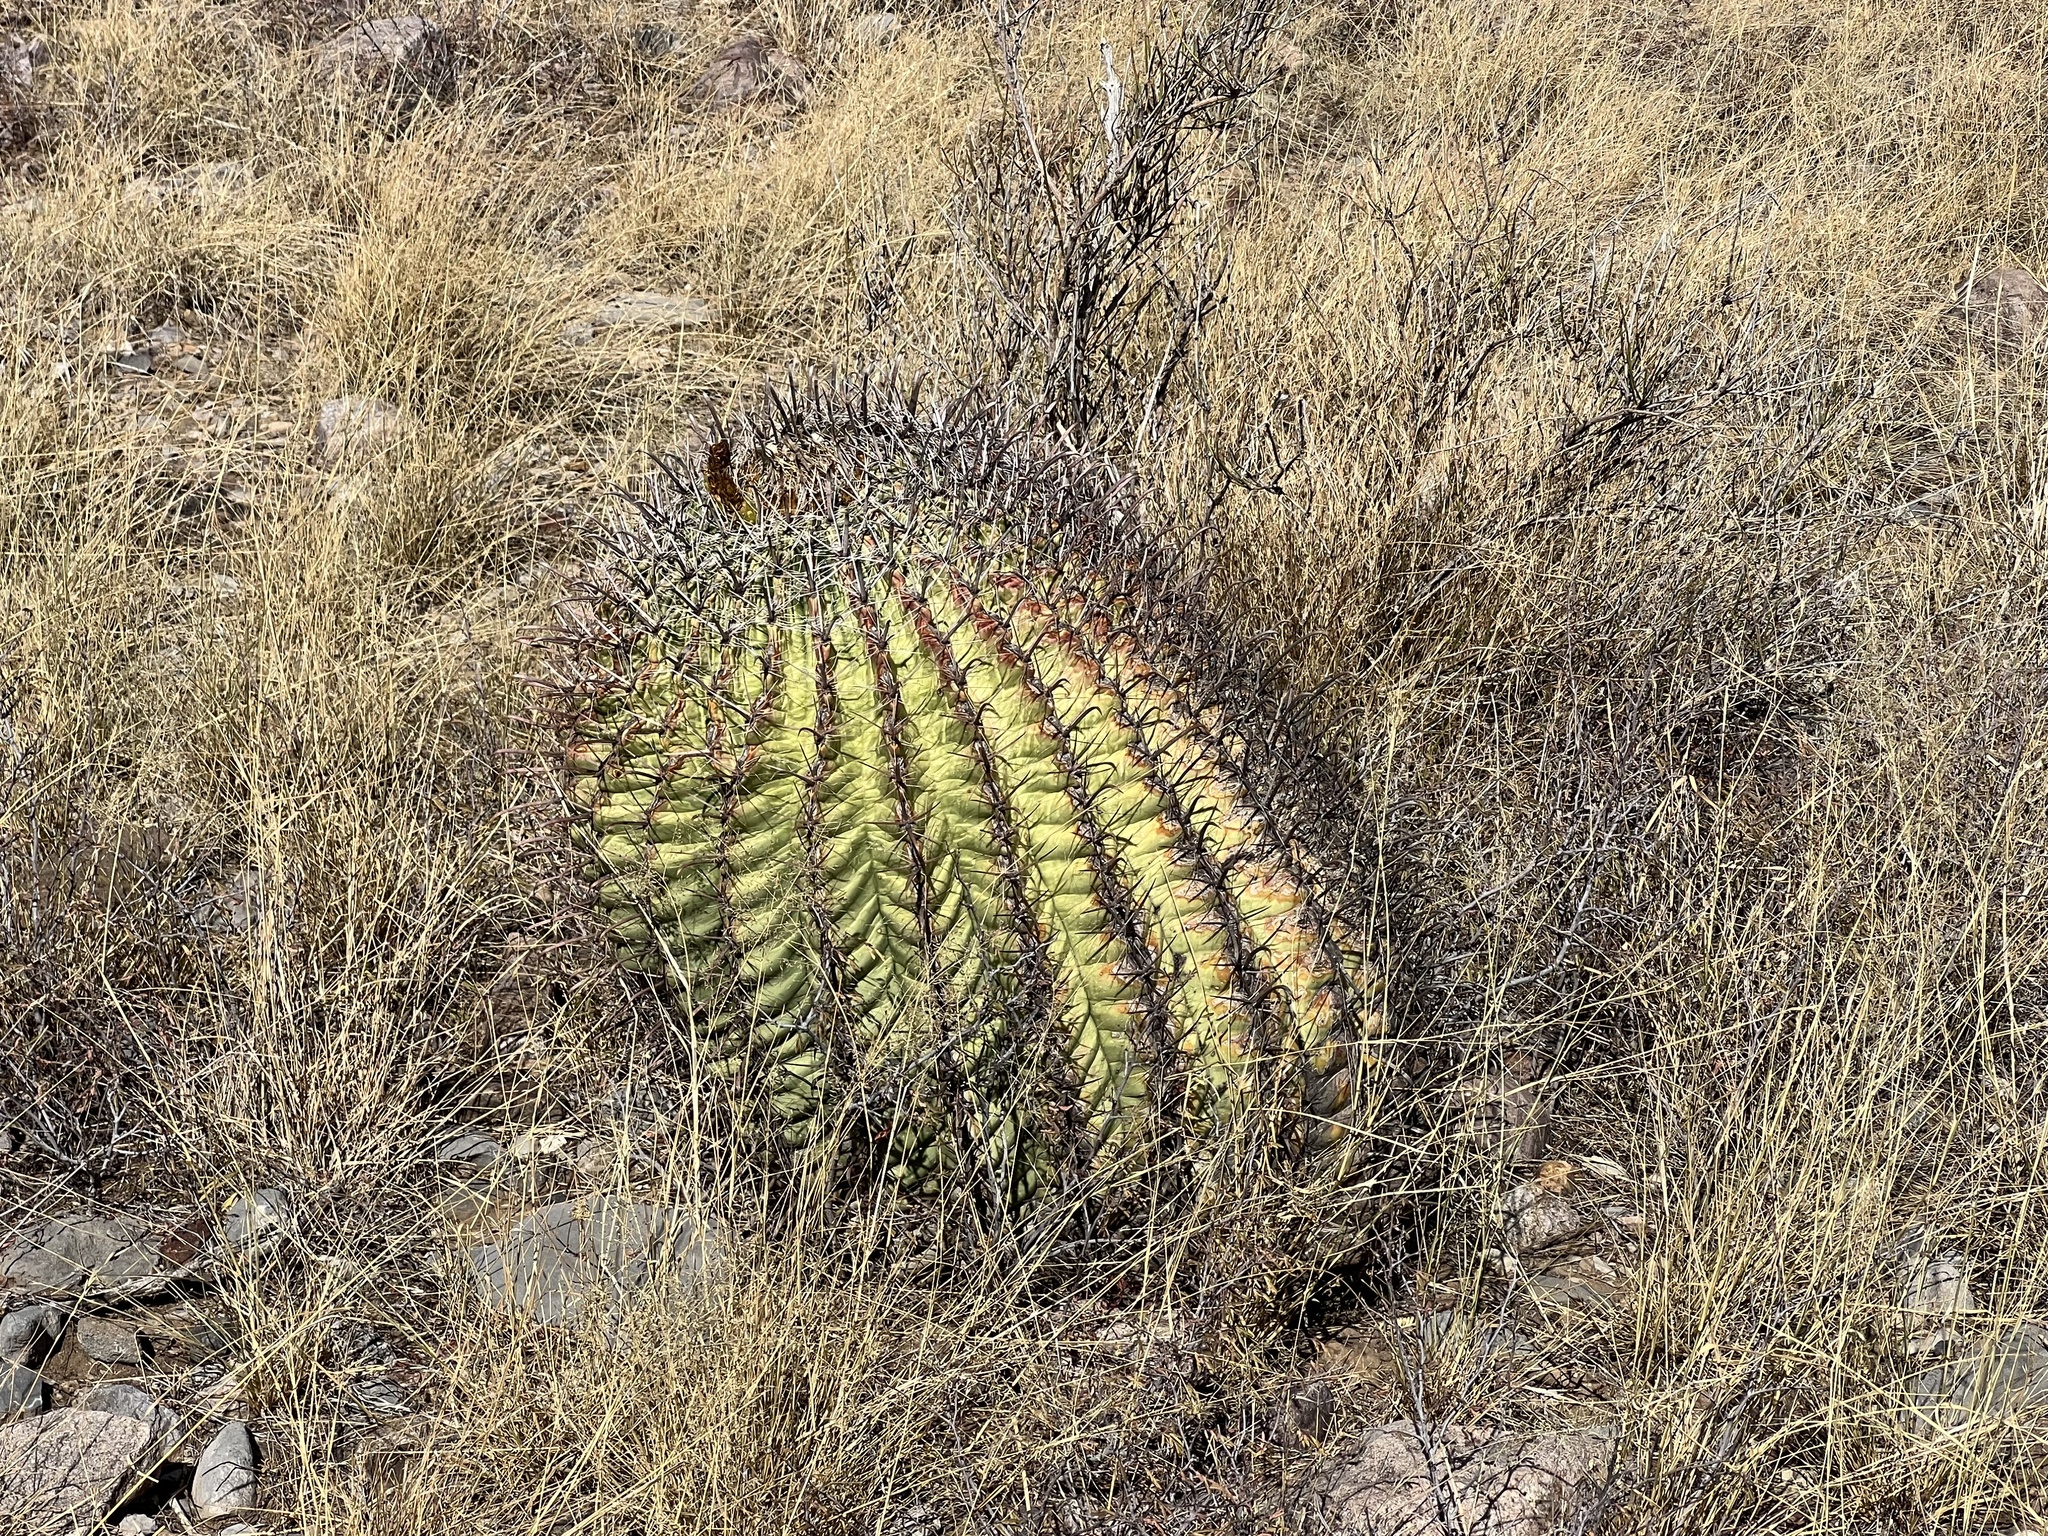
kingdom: Plantae
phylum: Tracheophyta
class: Magnoliopsida
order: Caryophyllales
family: Cactaceae
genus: Ferocactus
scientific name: Ferocactus wislizeni
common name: Candy barrel cactus
